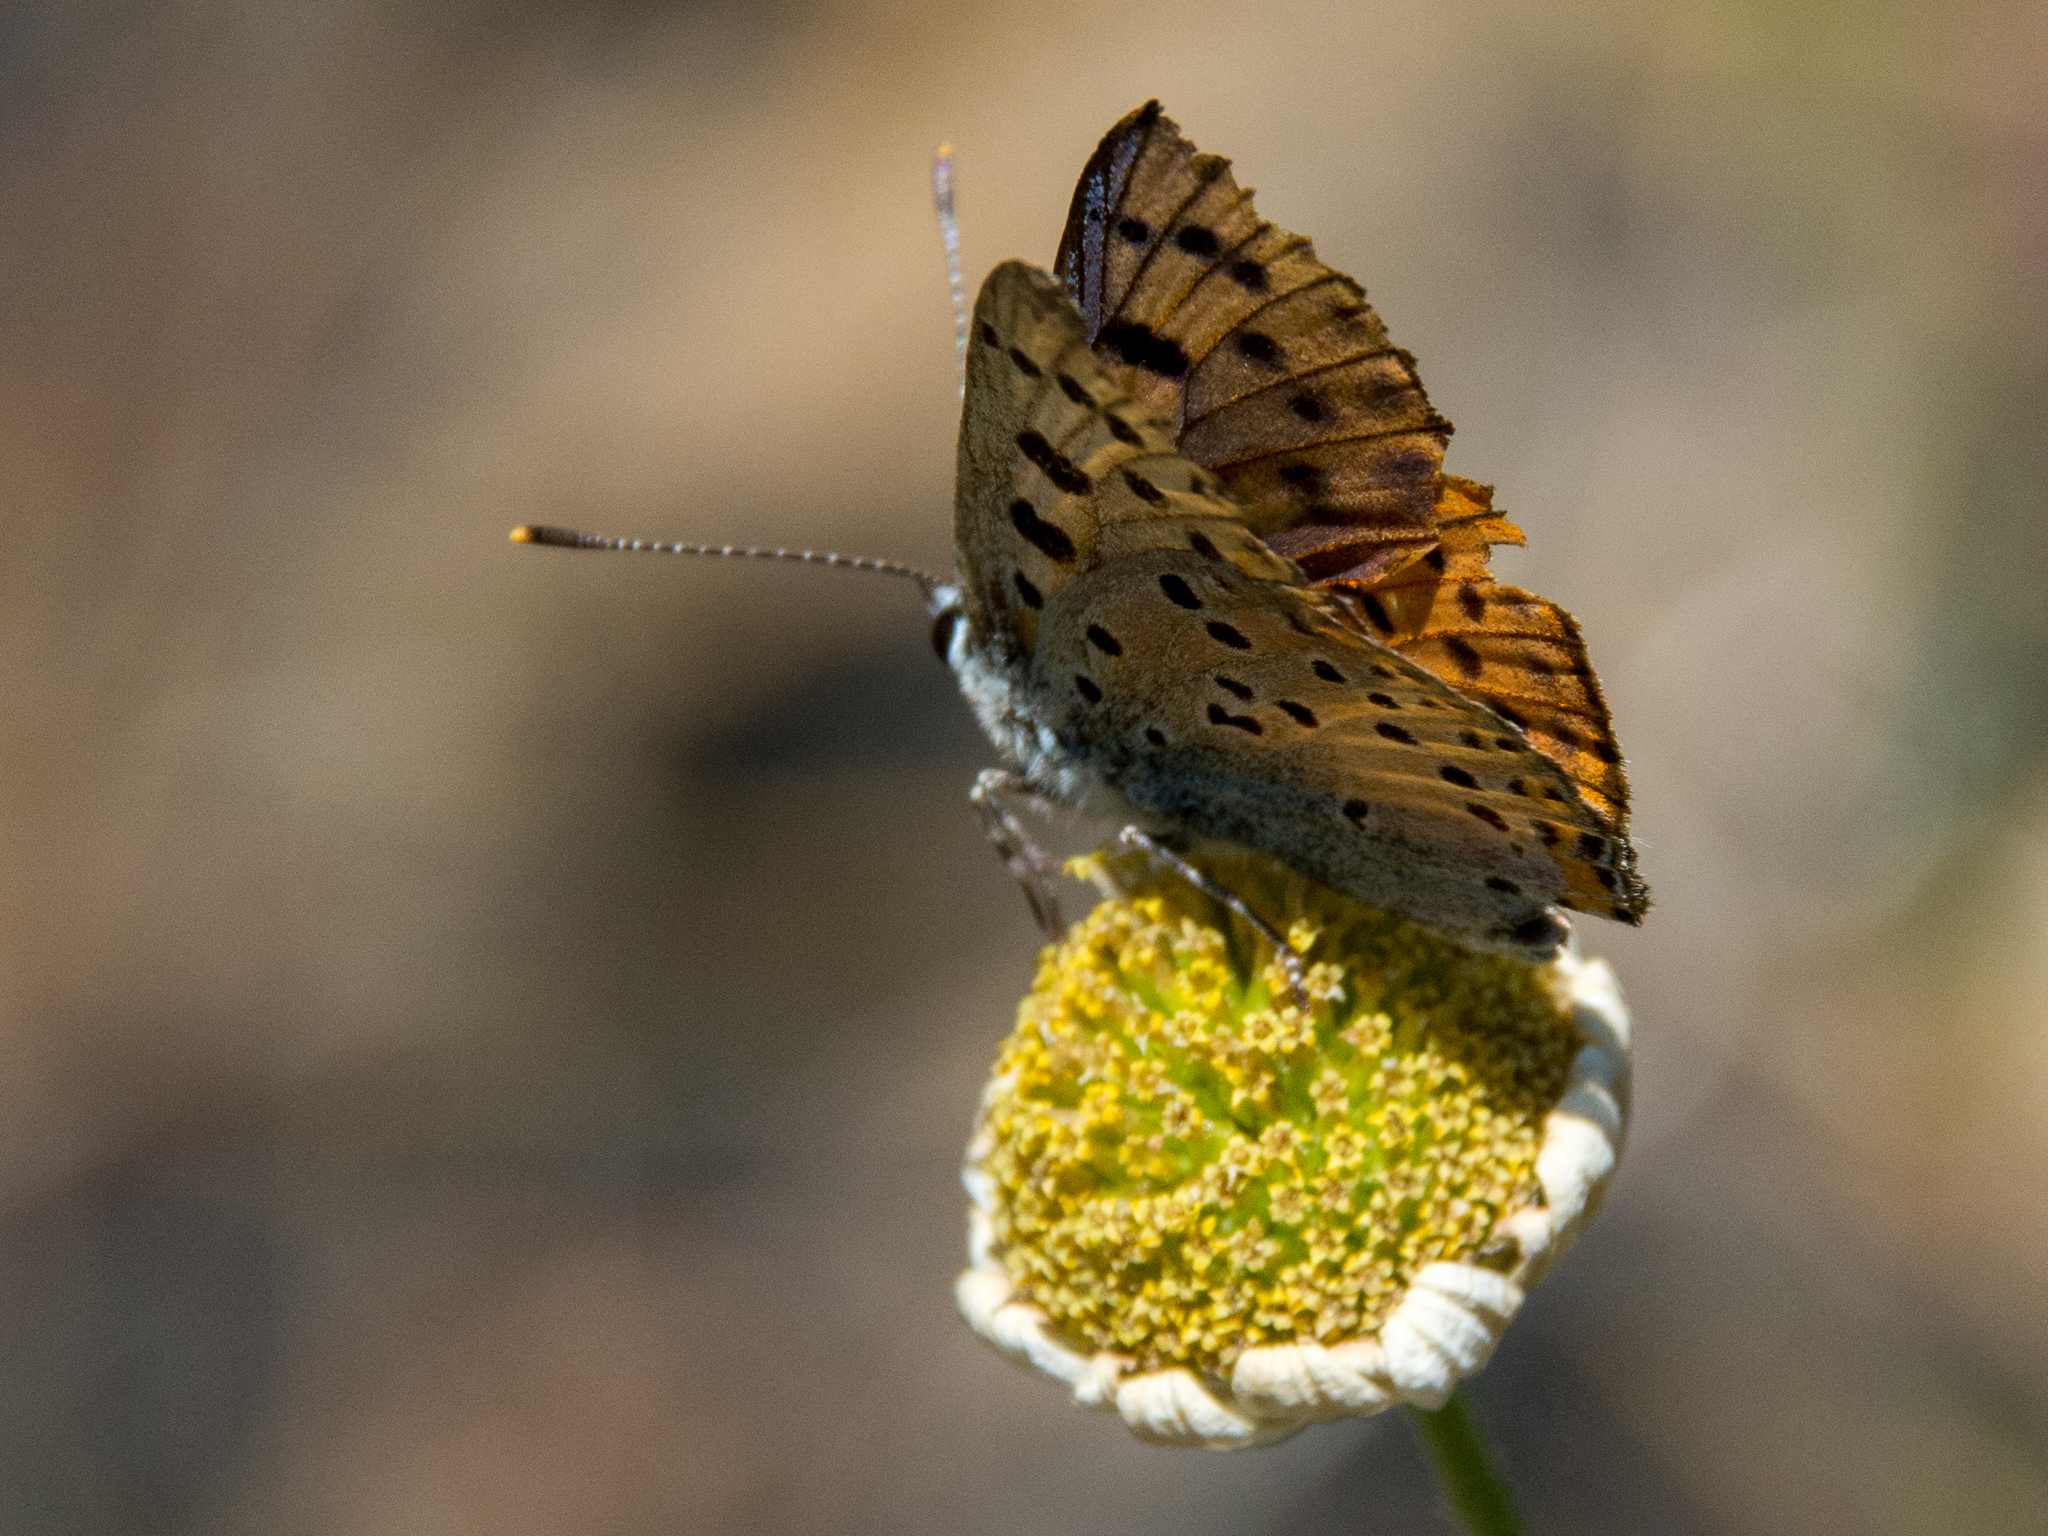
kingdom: Animalia
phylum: Arthropoda
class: Insecta
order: Lepidoptera
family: Lycaenidae
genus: Lycaena
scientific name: Lycaena alciphron
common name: Purple-shot copper
